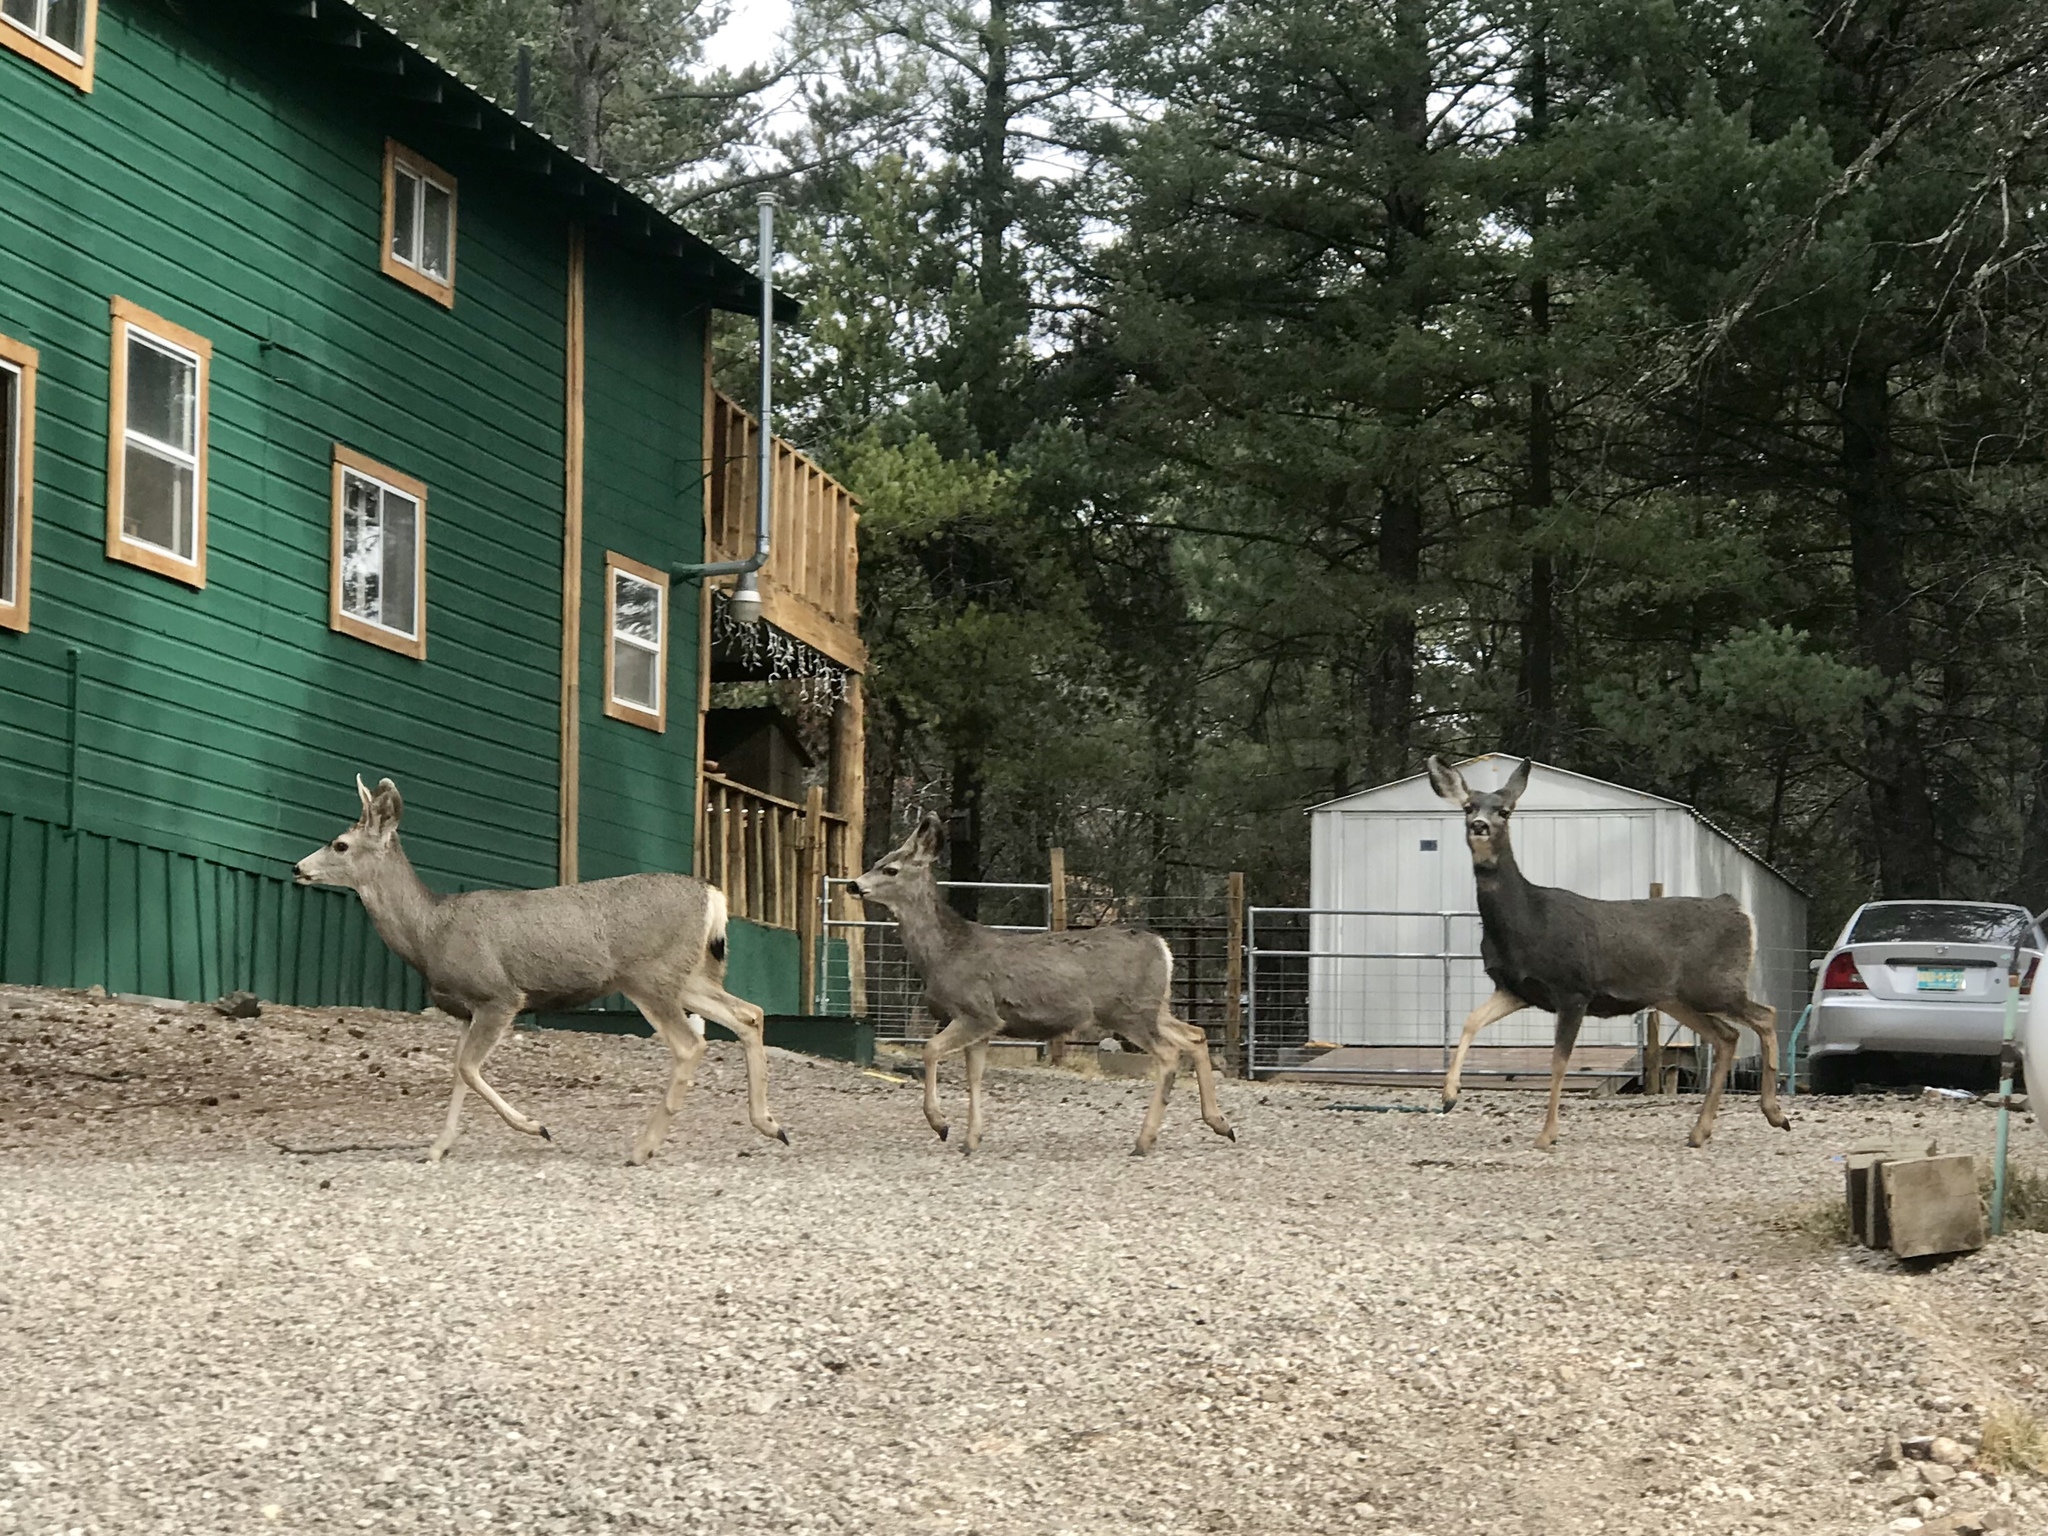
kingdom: Animalia
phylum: Chordata
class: Mammalia
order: Artiodactyla
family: Cervidae
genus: Odocoileus
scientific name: Odocoileus hemionus
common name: Mule deer
